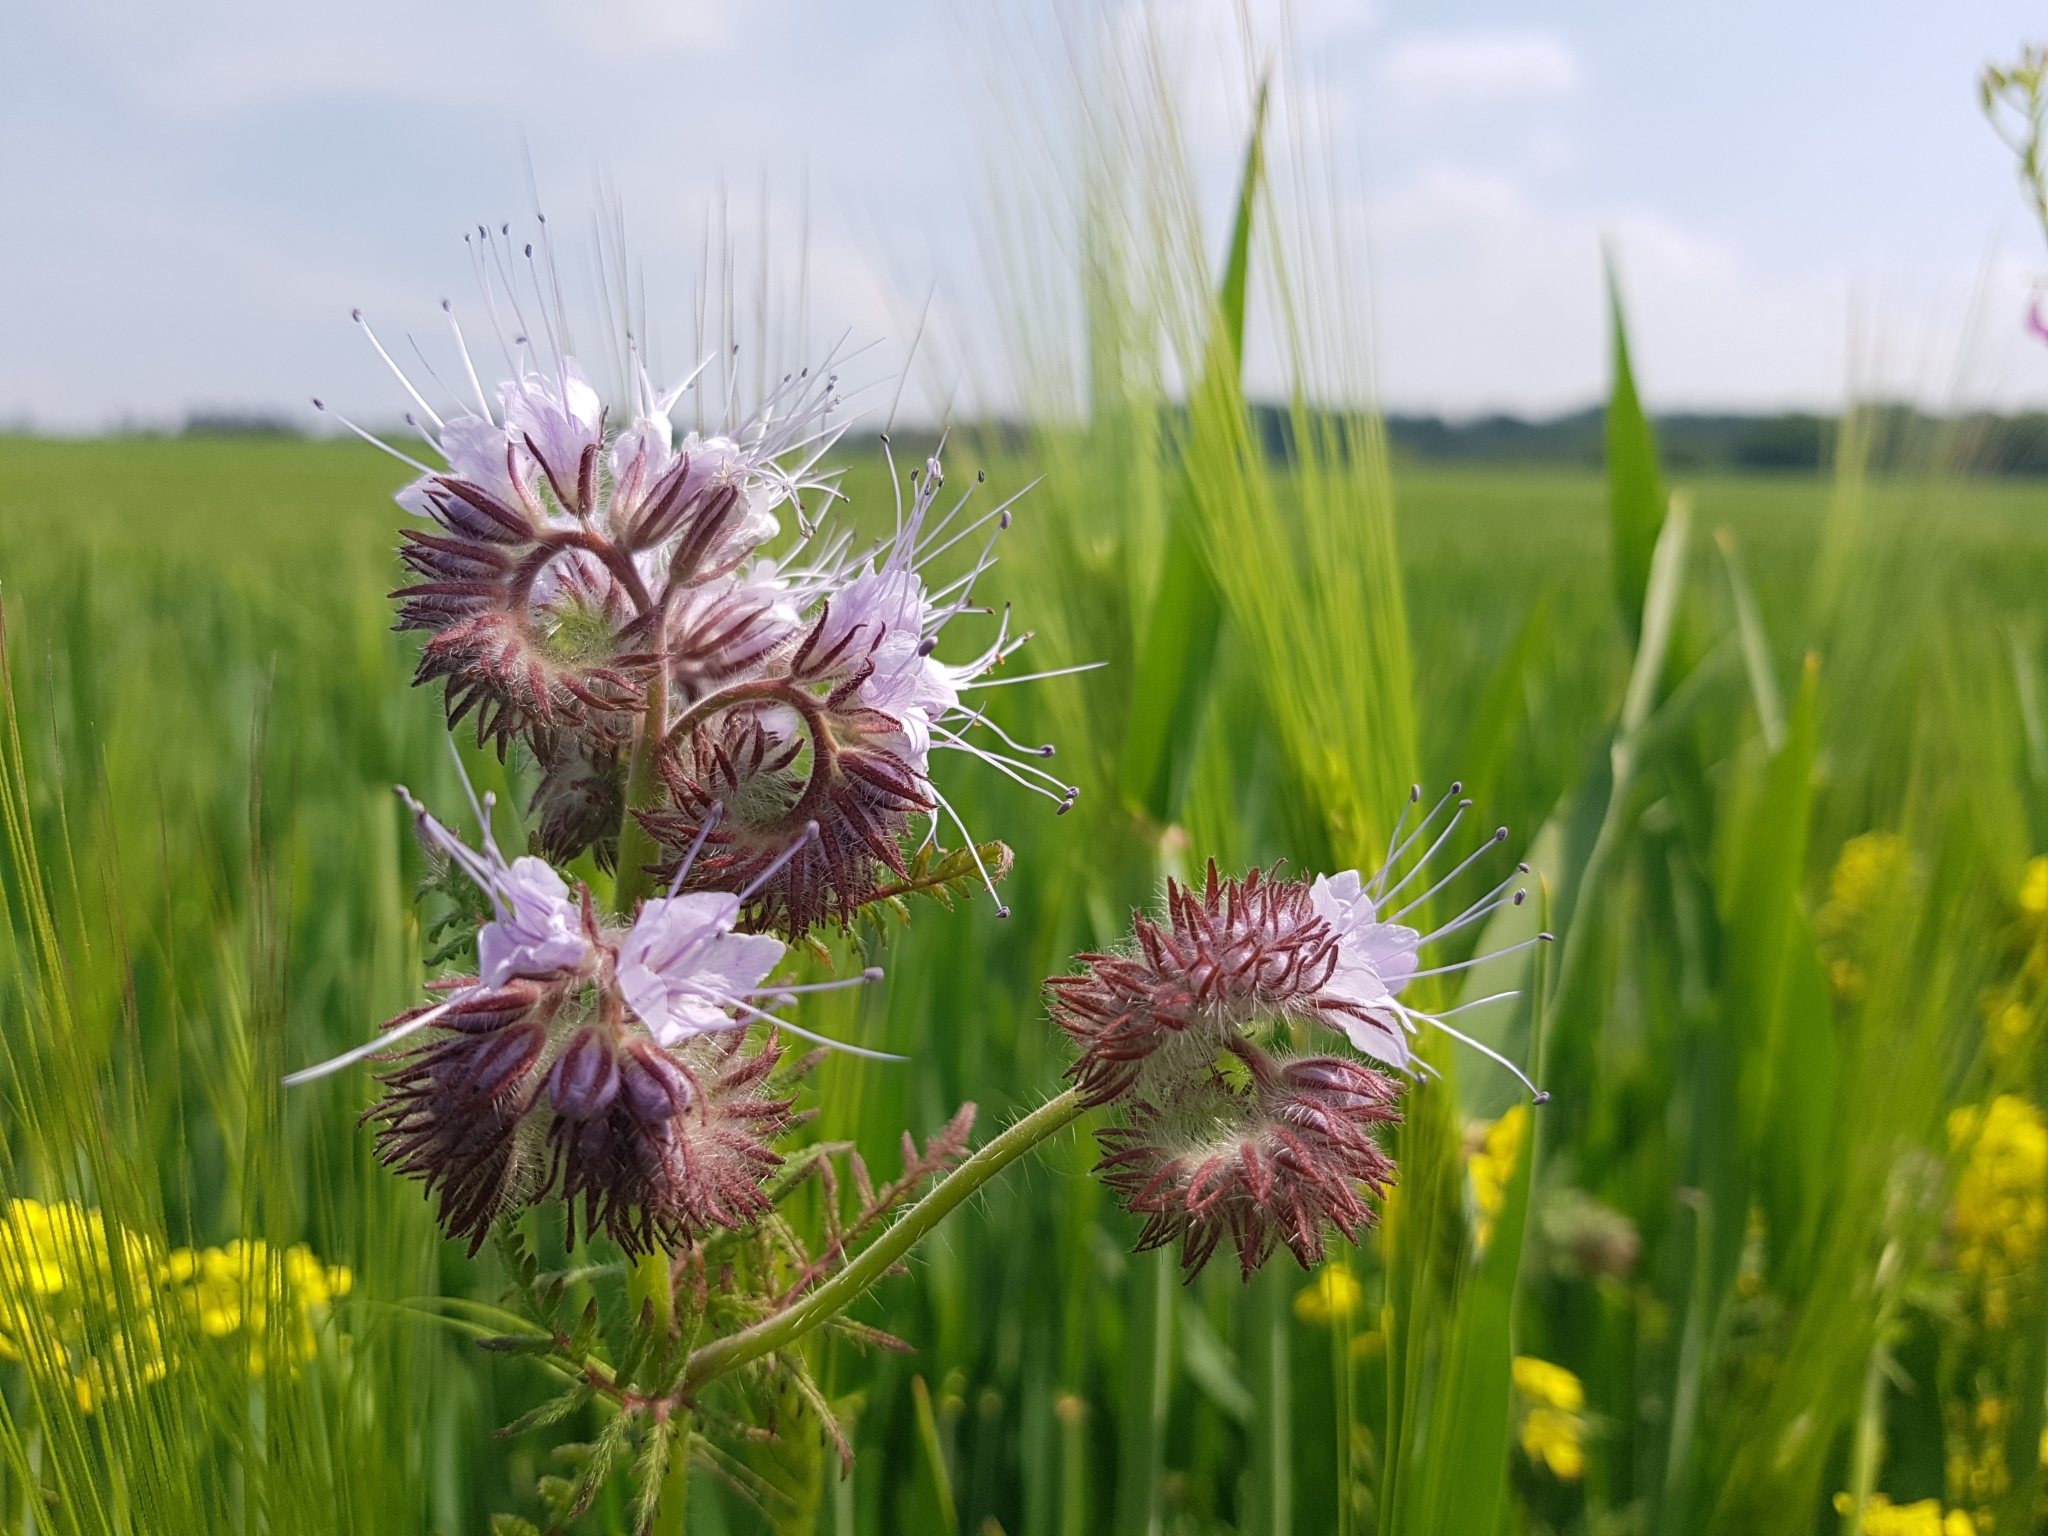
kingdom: Plantae
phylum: Tracheophyta
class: Magnoliopsida
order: Boraginales
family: Hydrophyllaceae
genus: Phacelia
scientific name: Phacelia tanacetifolia
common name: Phacelia
